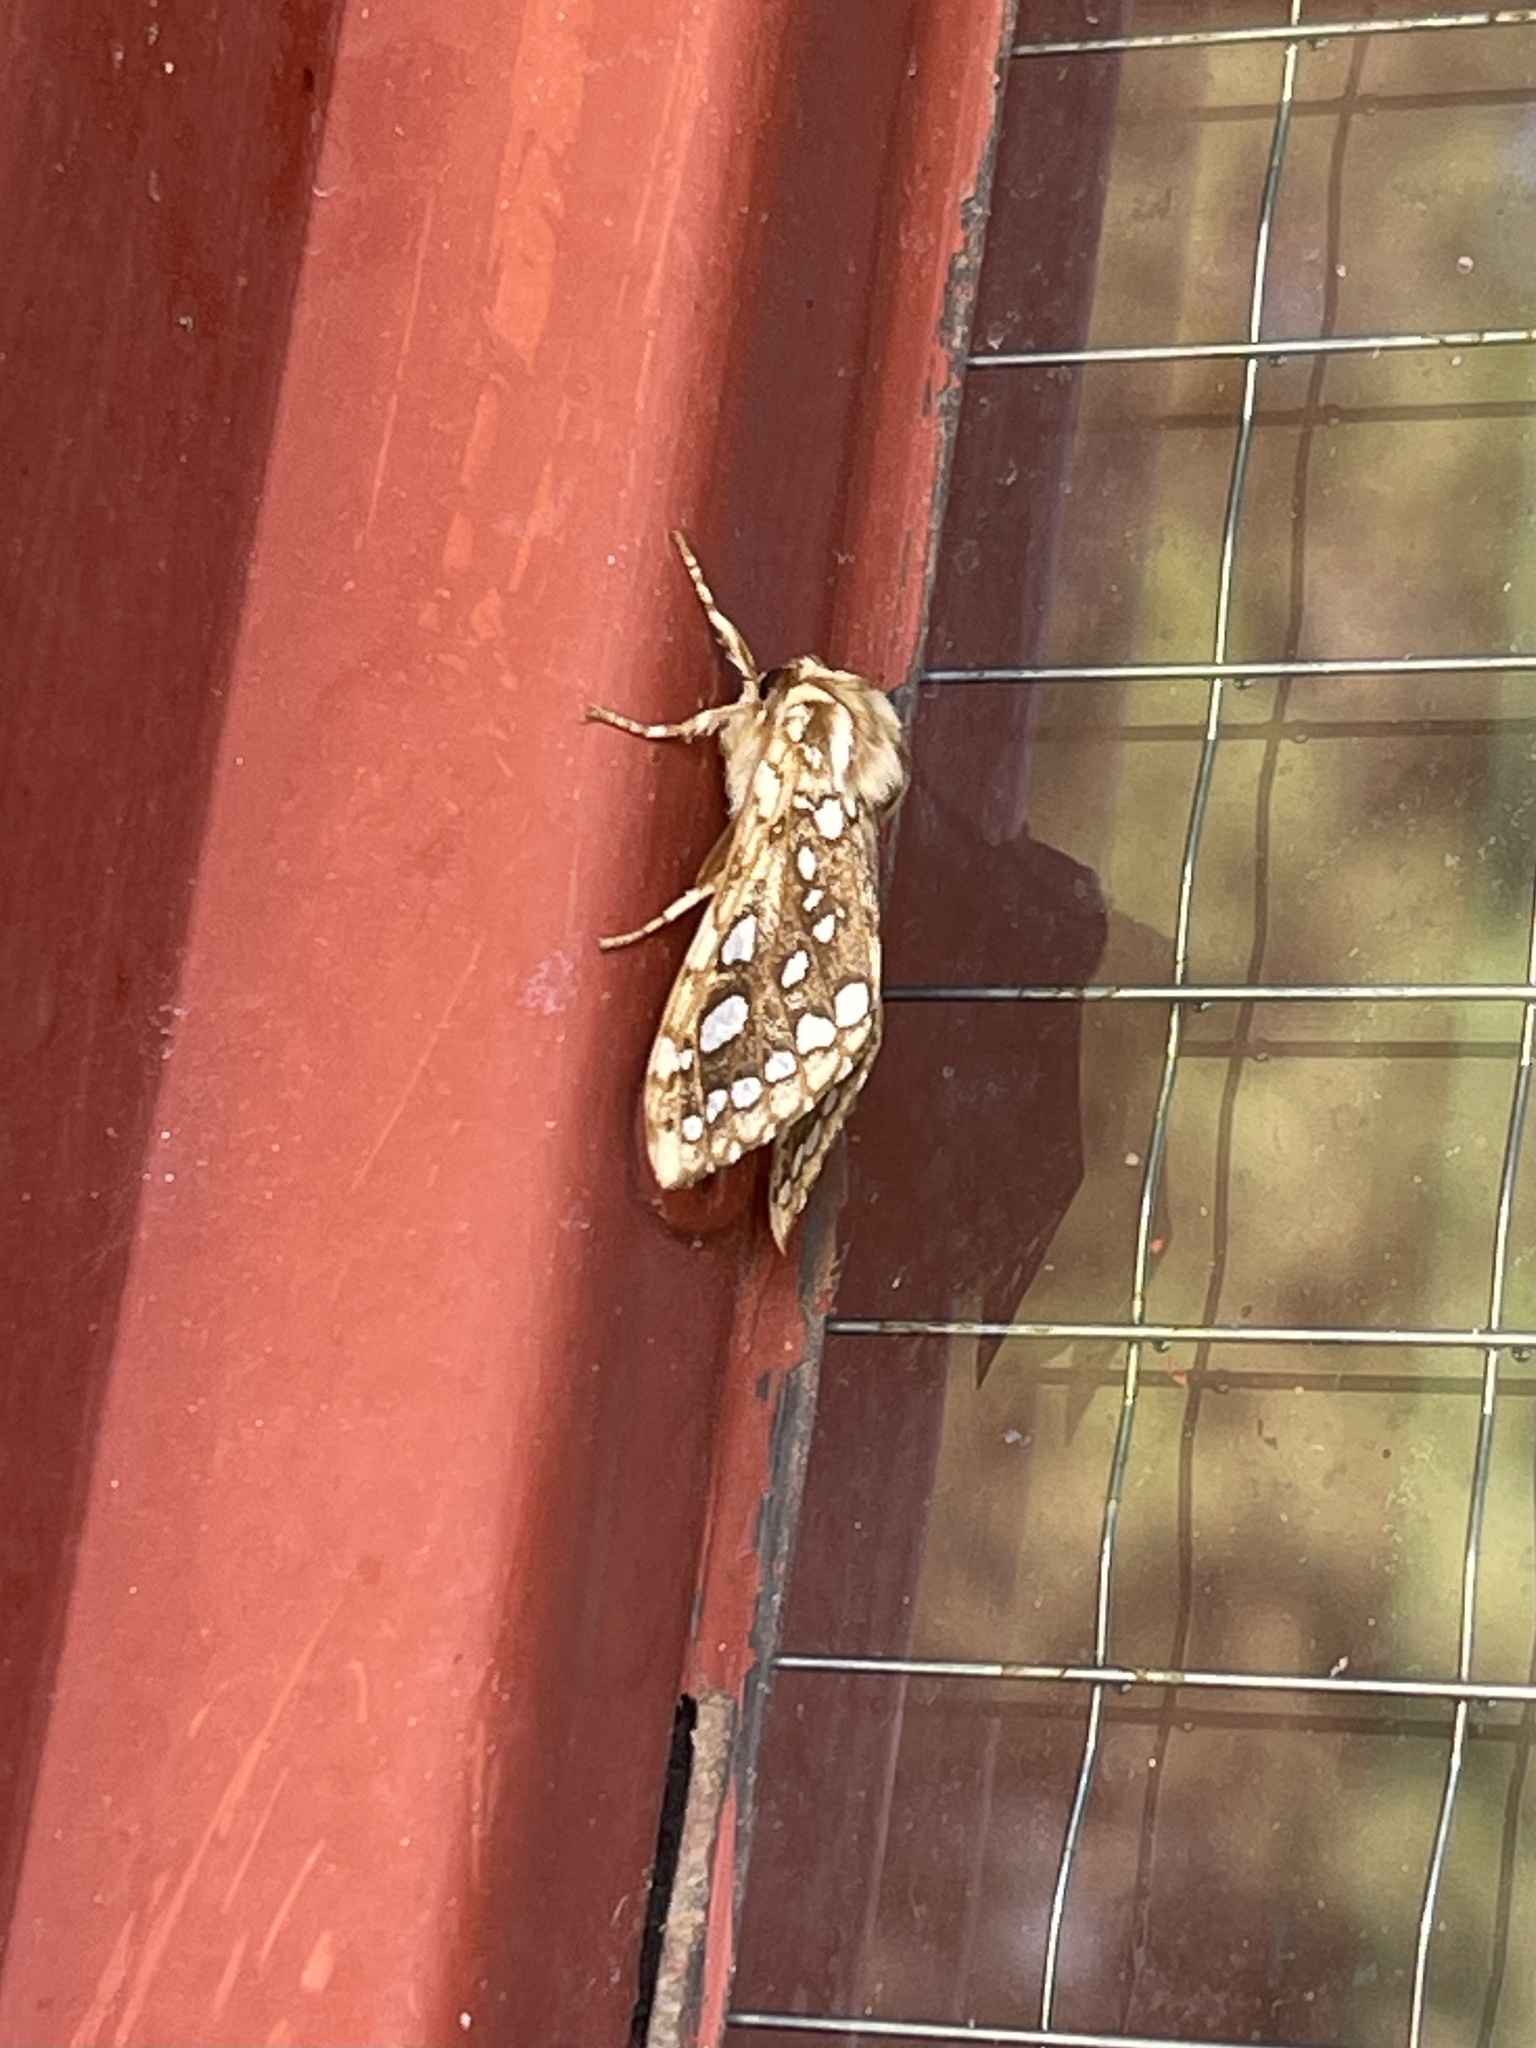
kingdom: Animalia
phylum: Arthropoda
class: Insecta
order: Lepidoptera
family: Erebidae
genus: Lophocampa
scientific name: Lophocampa argentata
